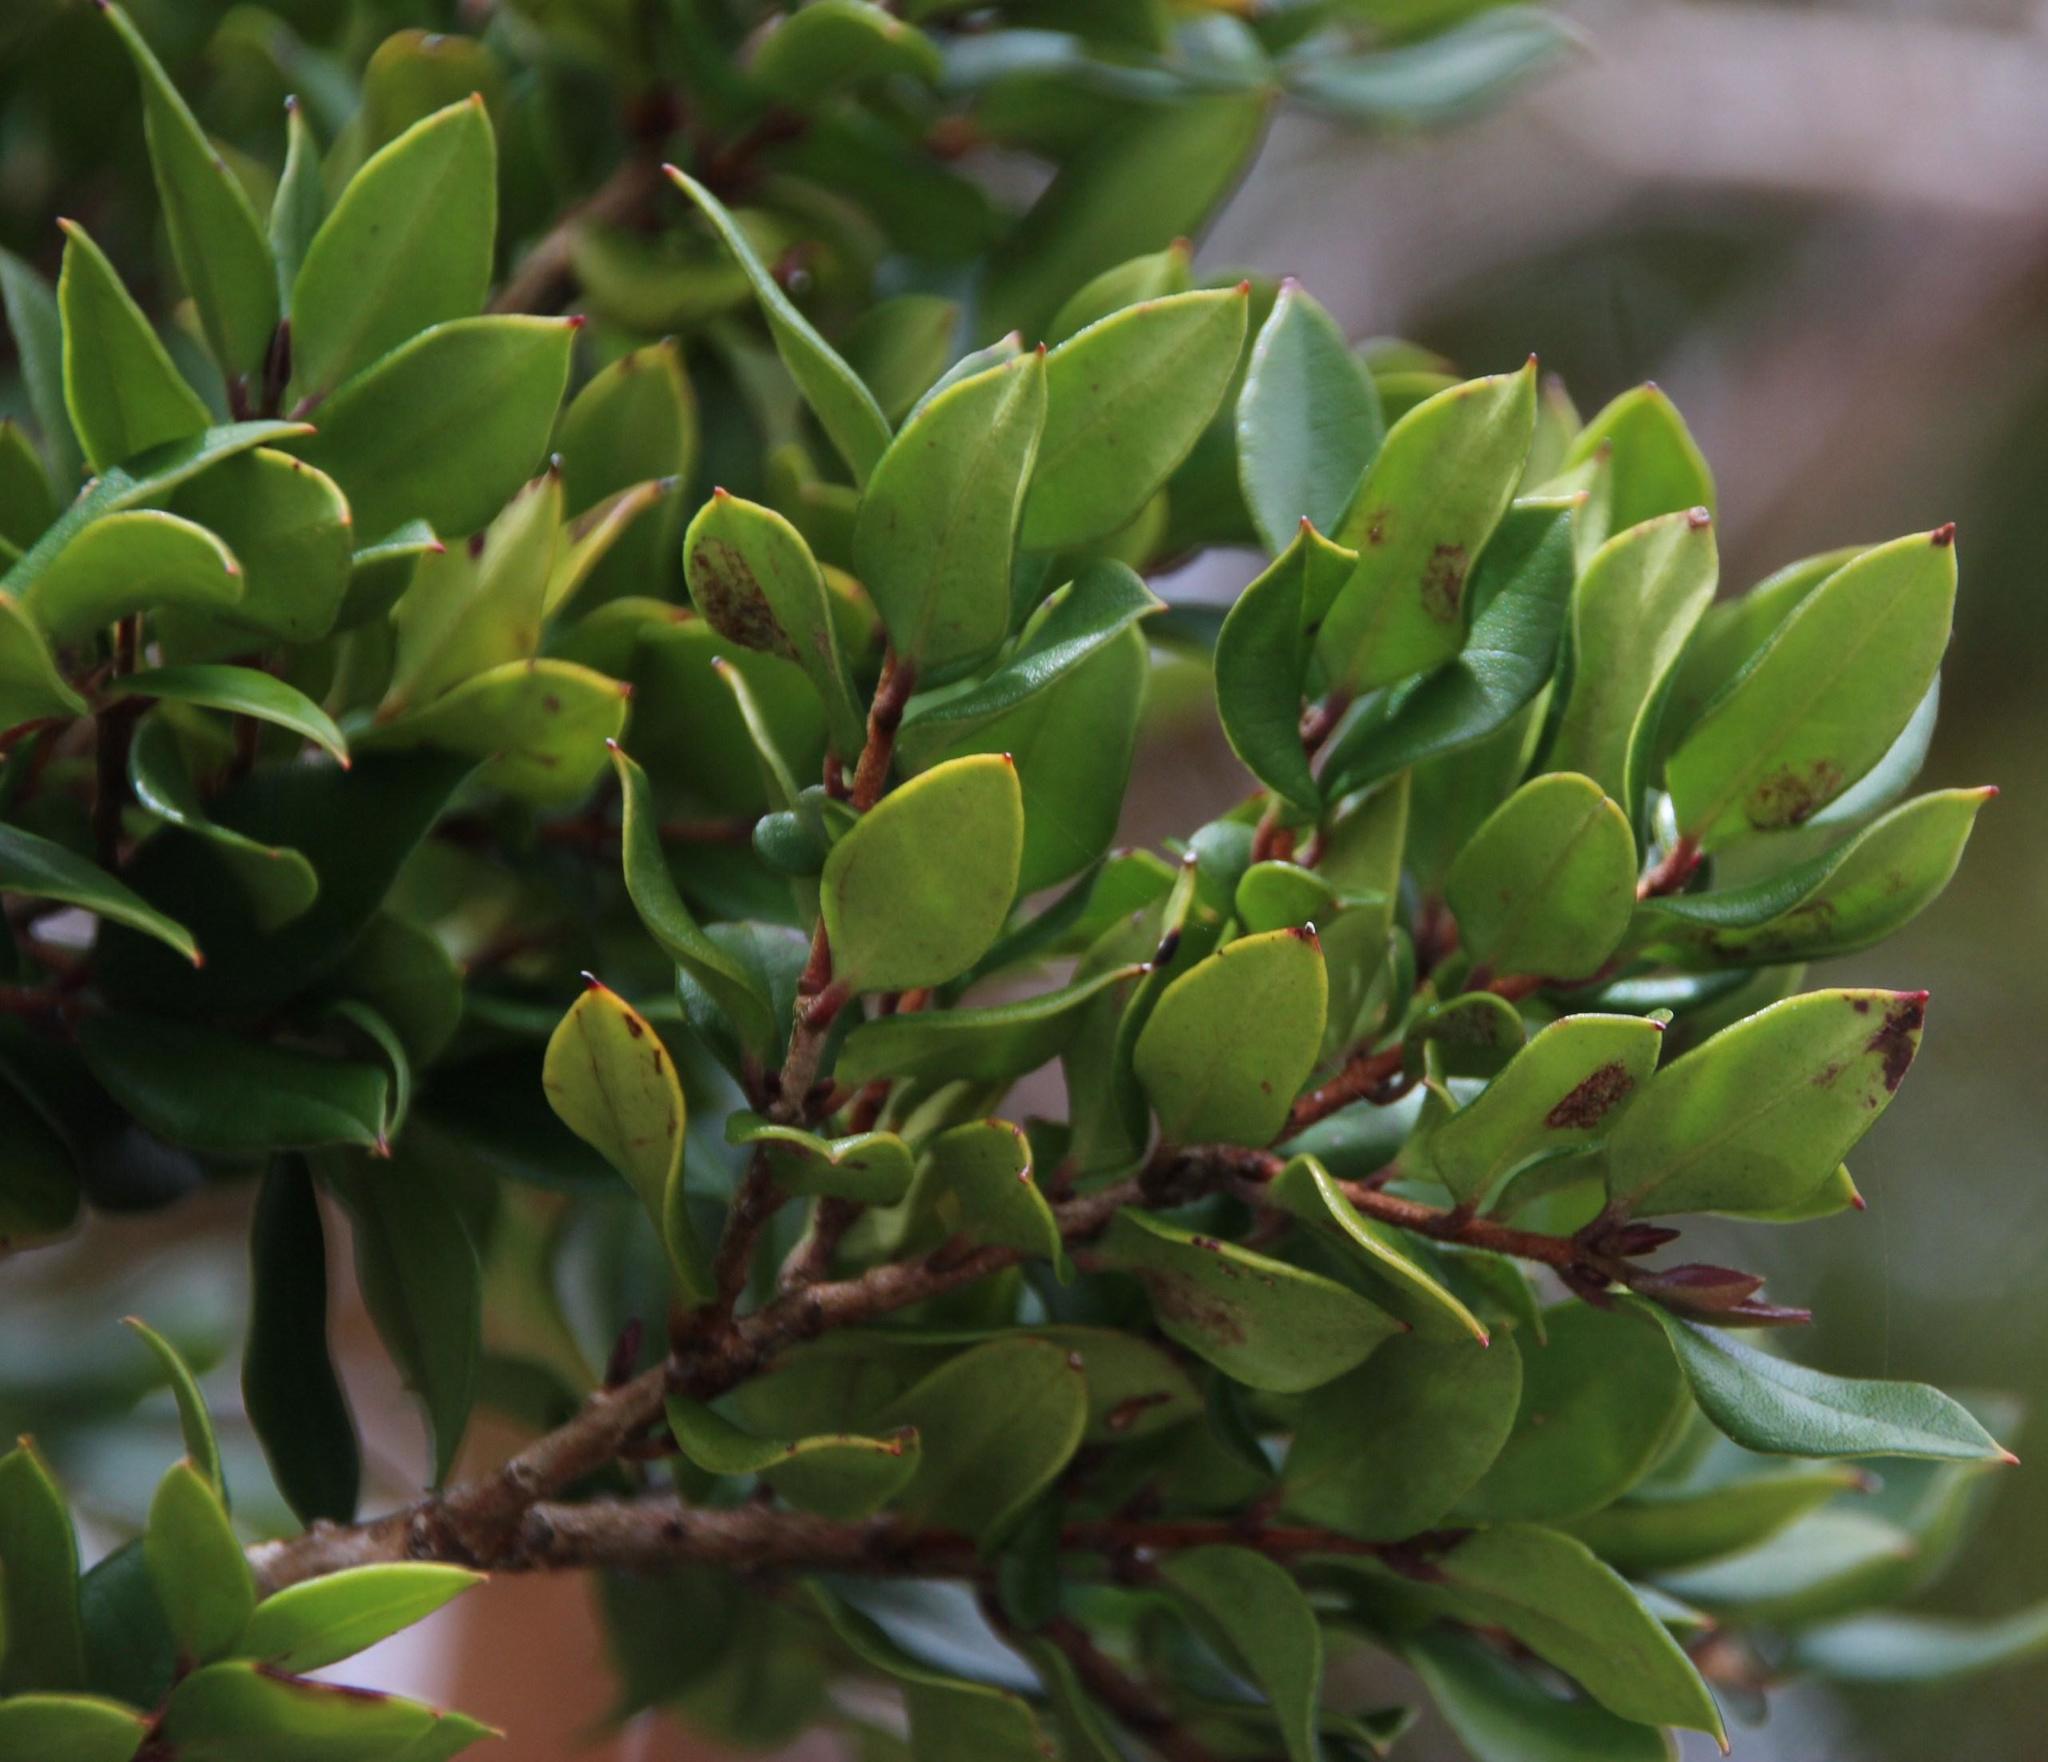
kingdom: Plantae
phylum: Tracheophyta
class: Magnoliopsida
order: Myrtales
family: Myrtaceae
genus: Luma
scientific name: Luma apiculata
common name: Chilean myrtle
